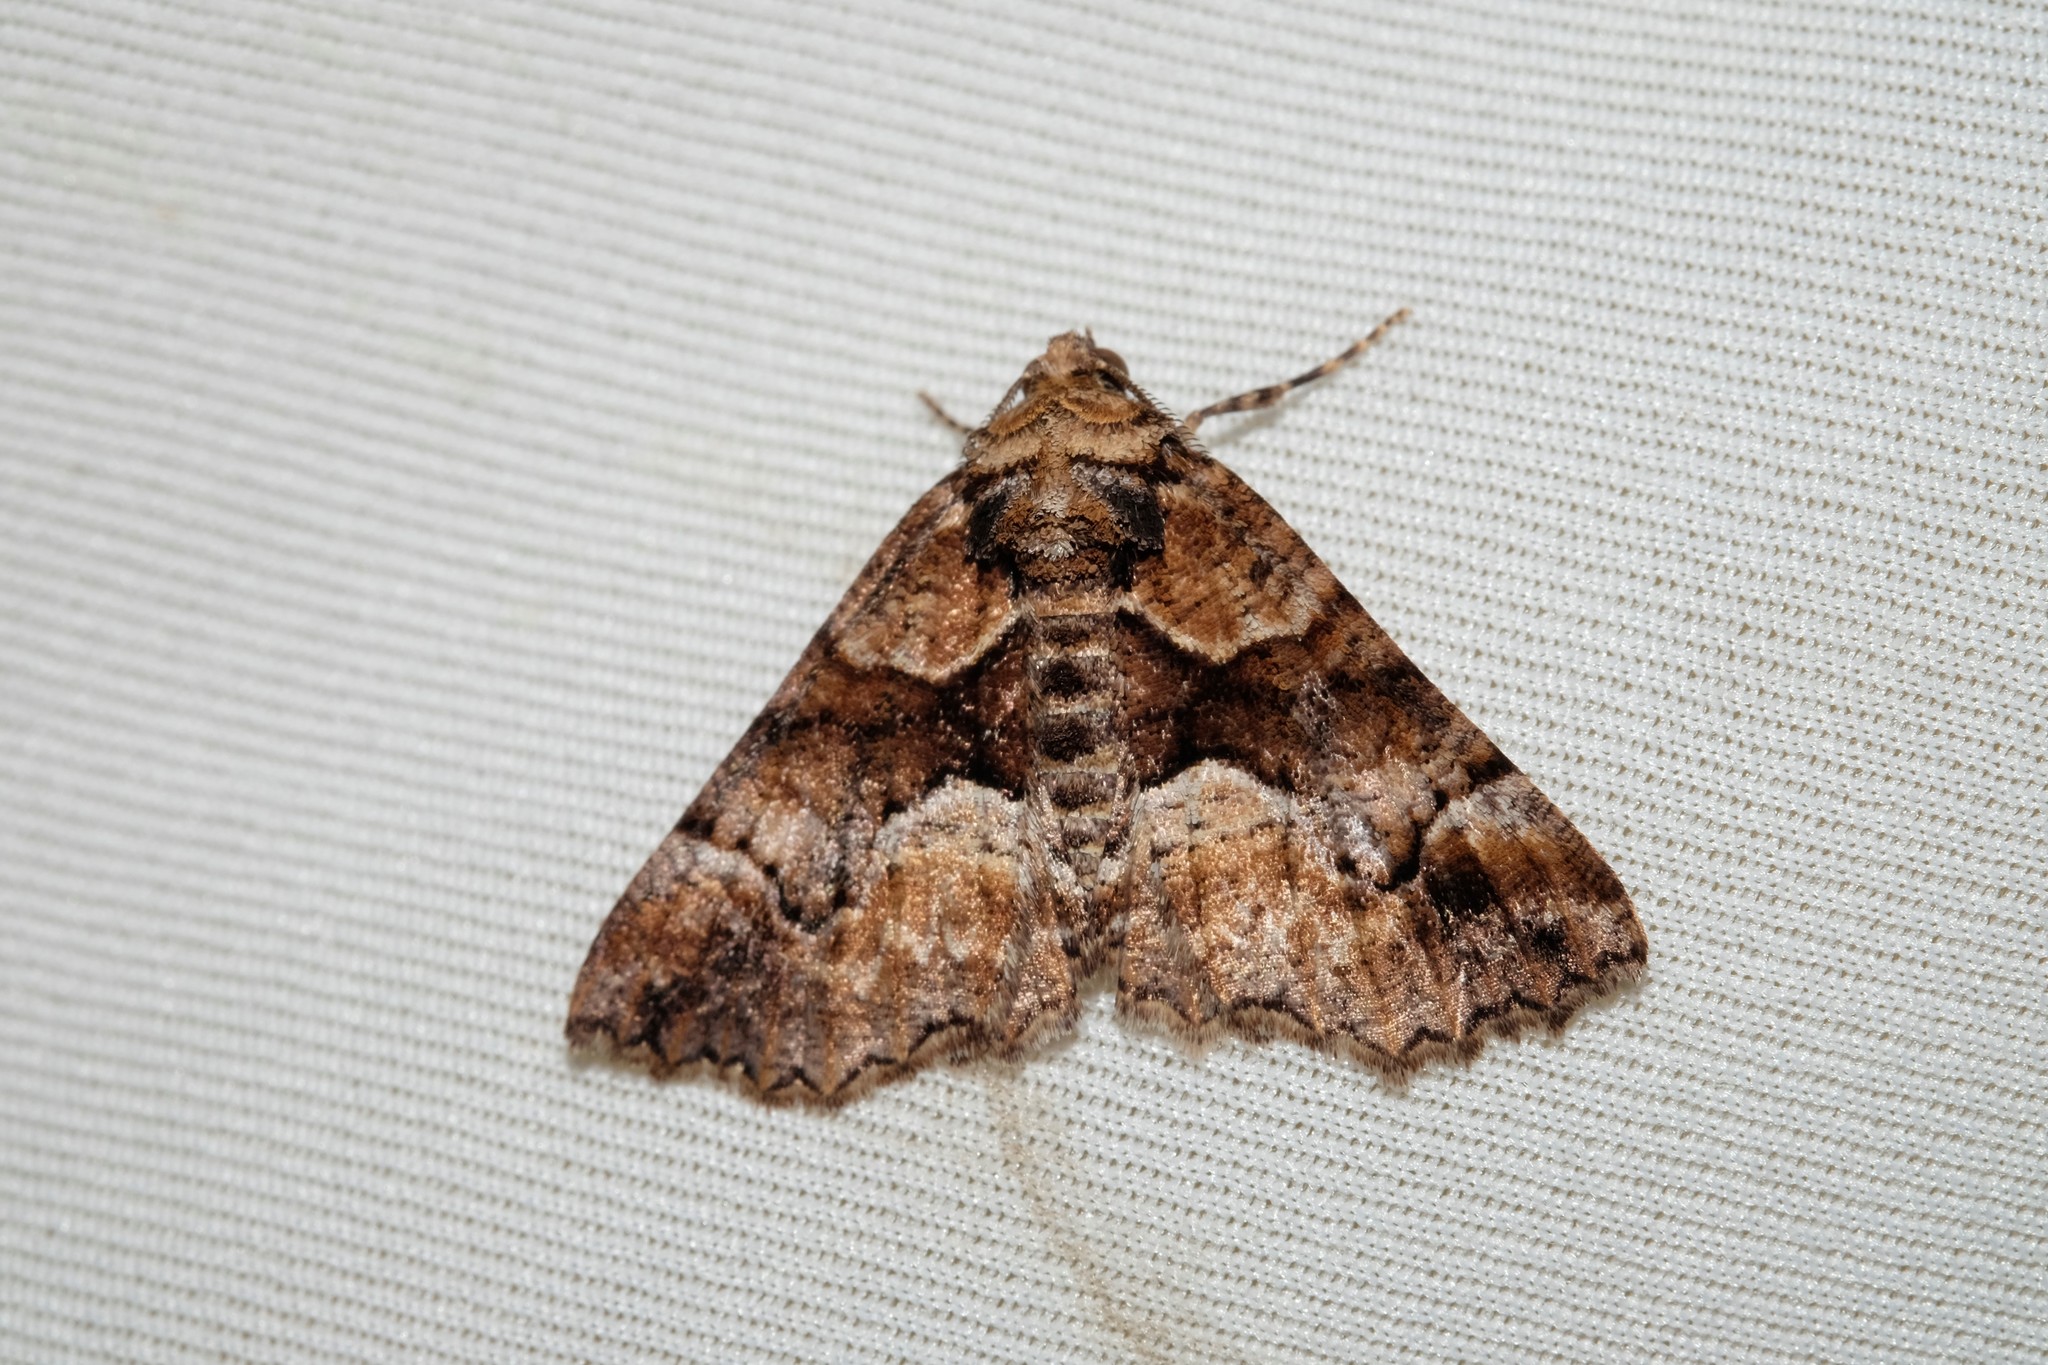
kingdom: Animalia
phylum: Arthropoda
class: Insecta
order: Lepidoptera
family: Geometridae
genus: Gastrina
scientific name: Gastrina cristaria
